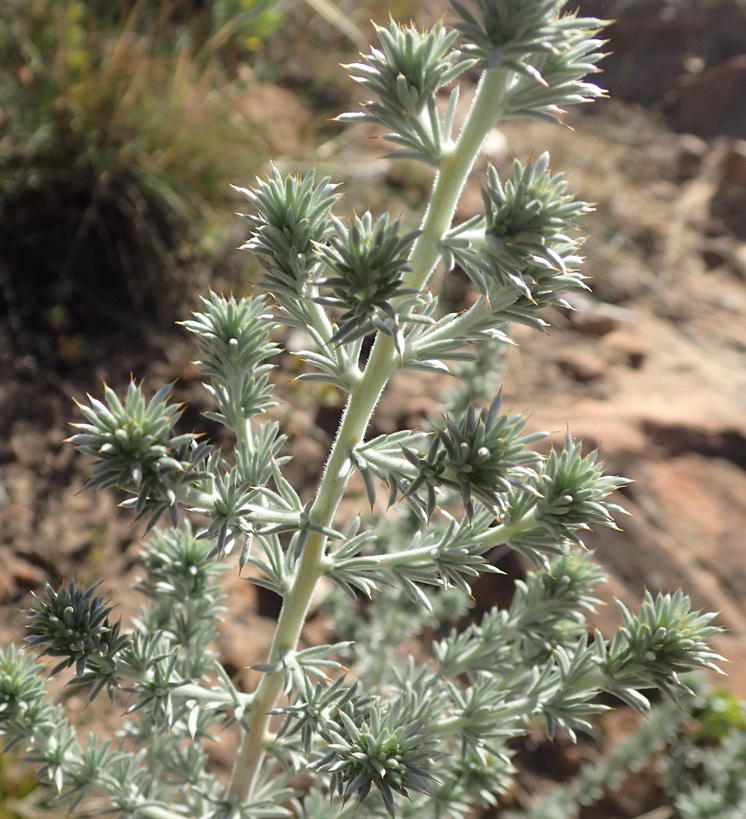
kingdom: Plantae
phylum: Tracheophyta
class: Magnoliopsida
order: Fabales
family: Fabaceae
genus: Aspalathus
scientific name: Aspalathus hystrix
